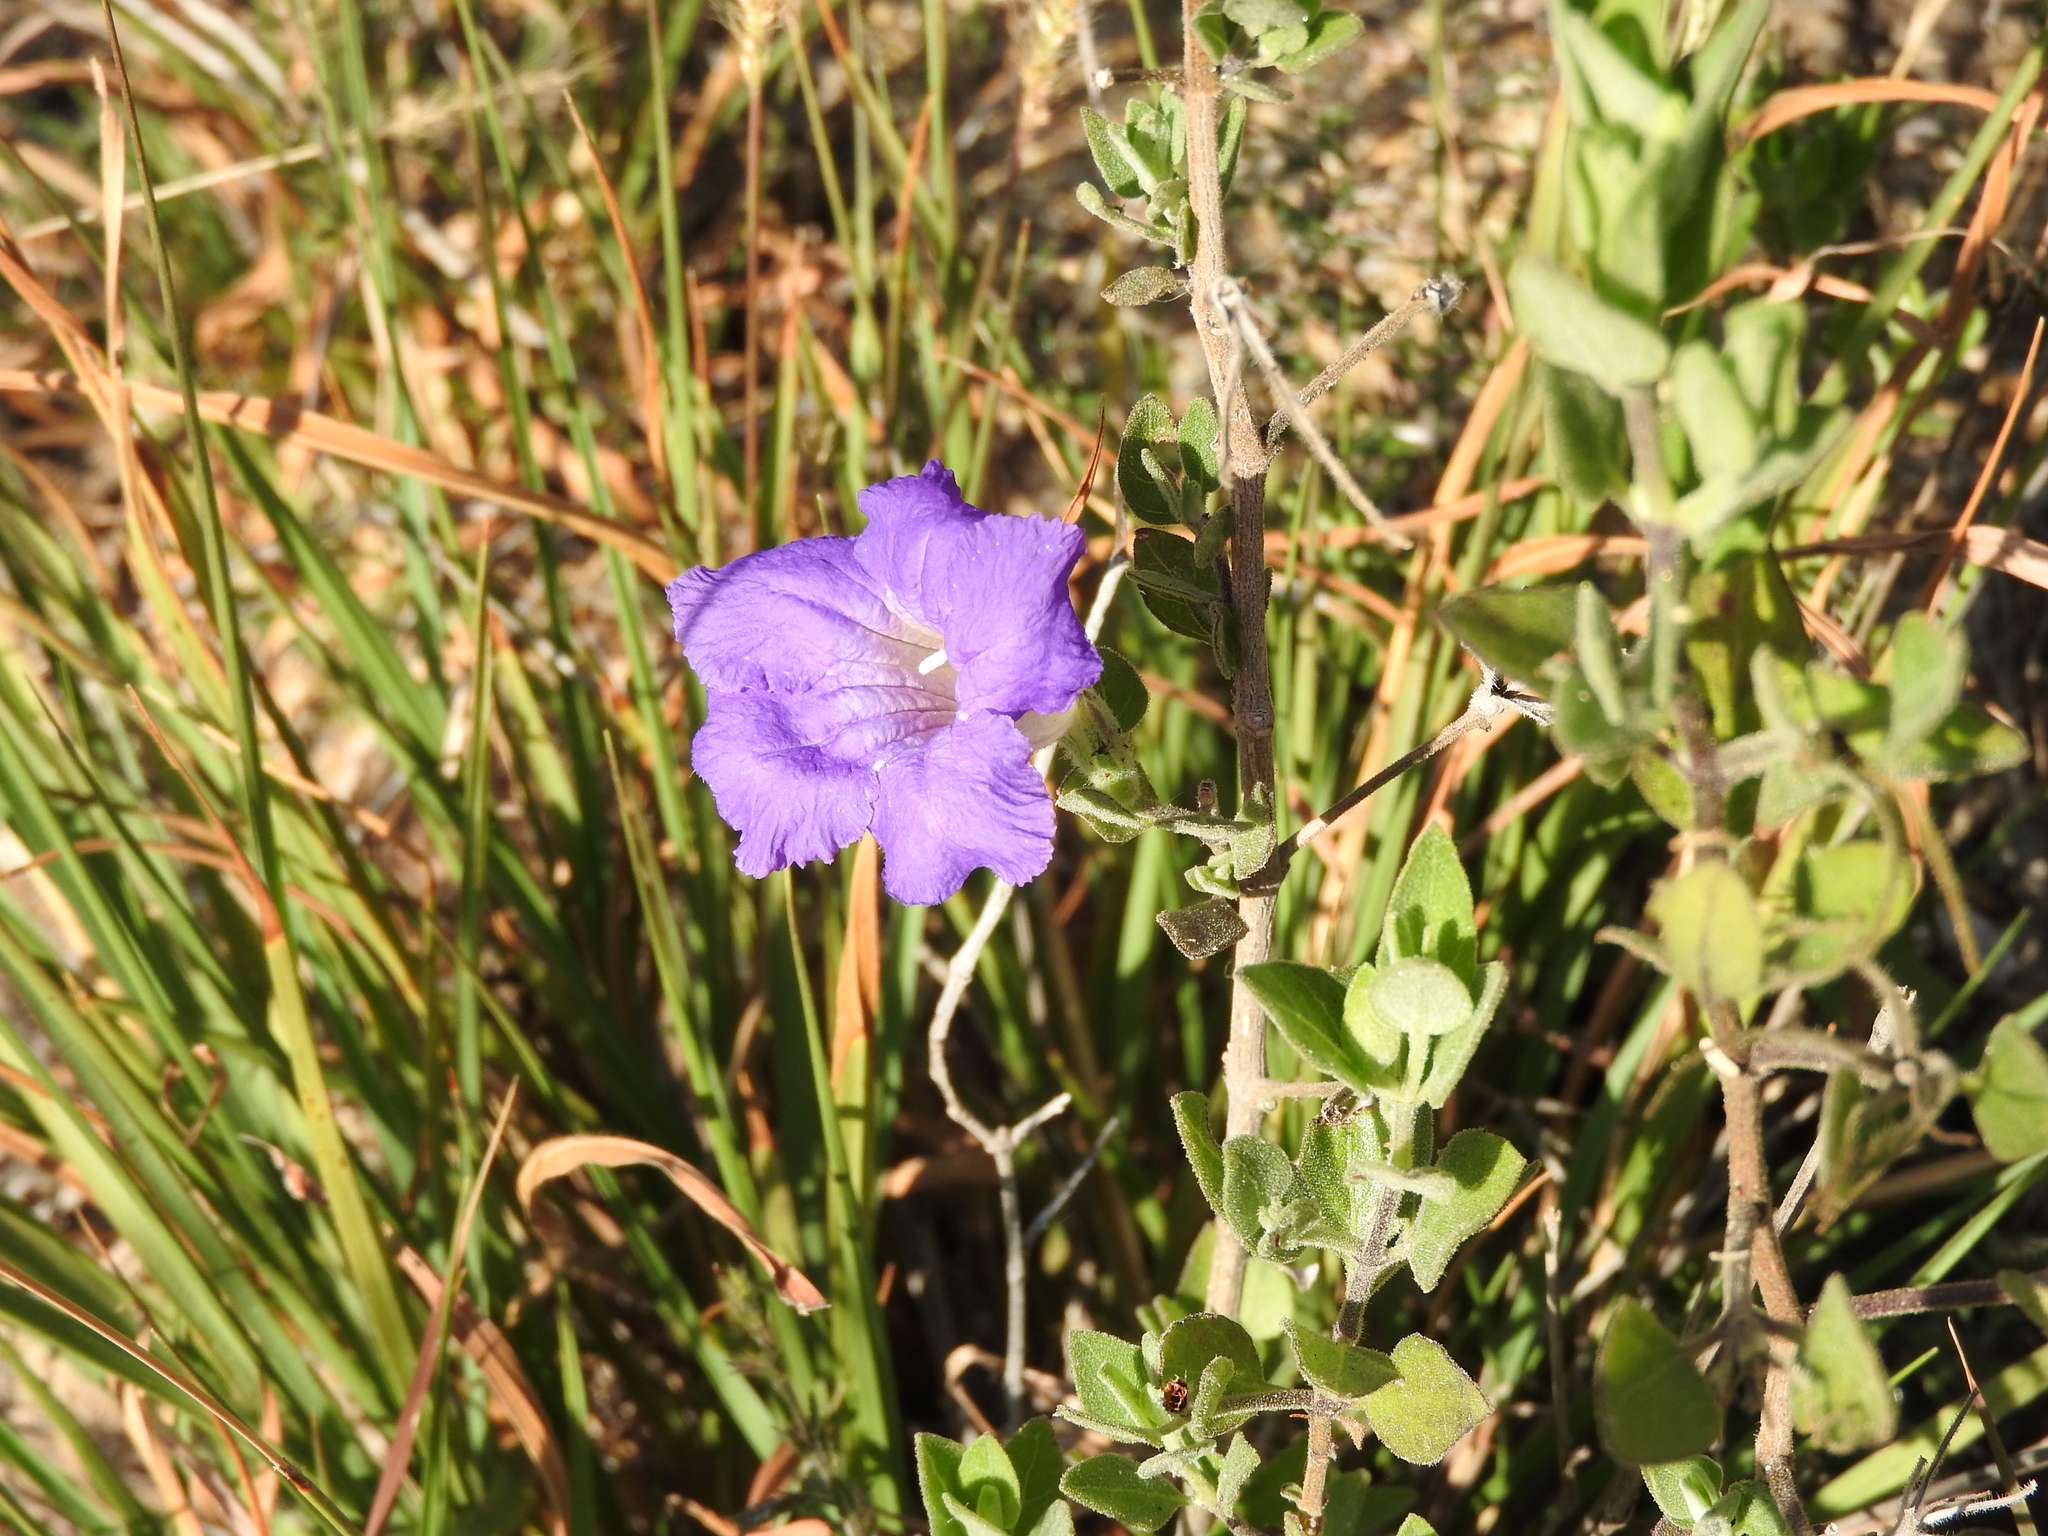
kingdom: Plantae
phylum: Tracheophyta
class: Magnoliopsida
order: Lamiales
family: Acanthaceae
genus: Ruellia
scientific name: Ruellia hirsutoglandulosa
